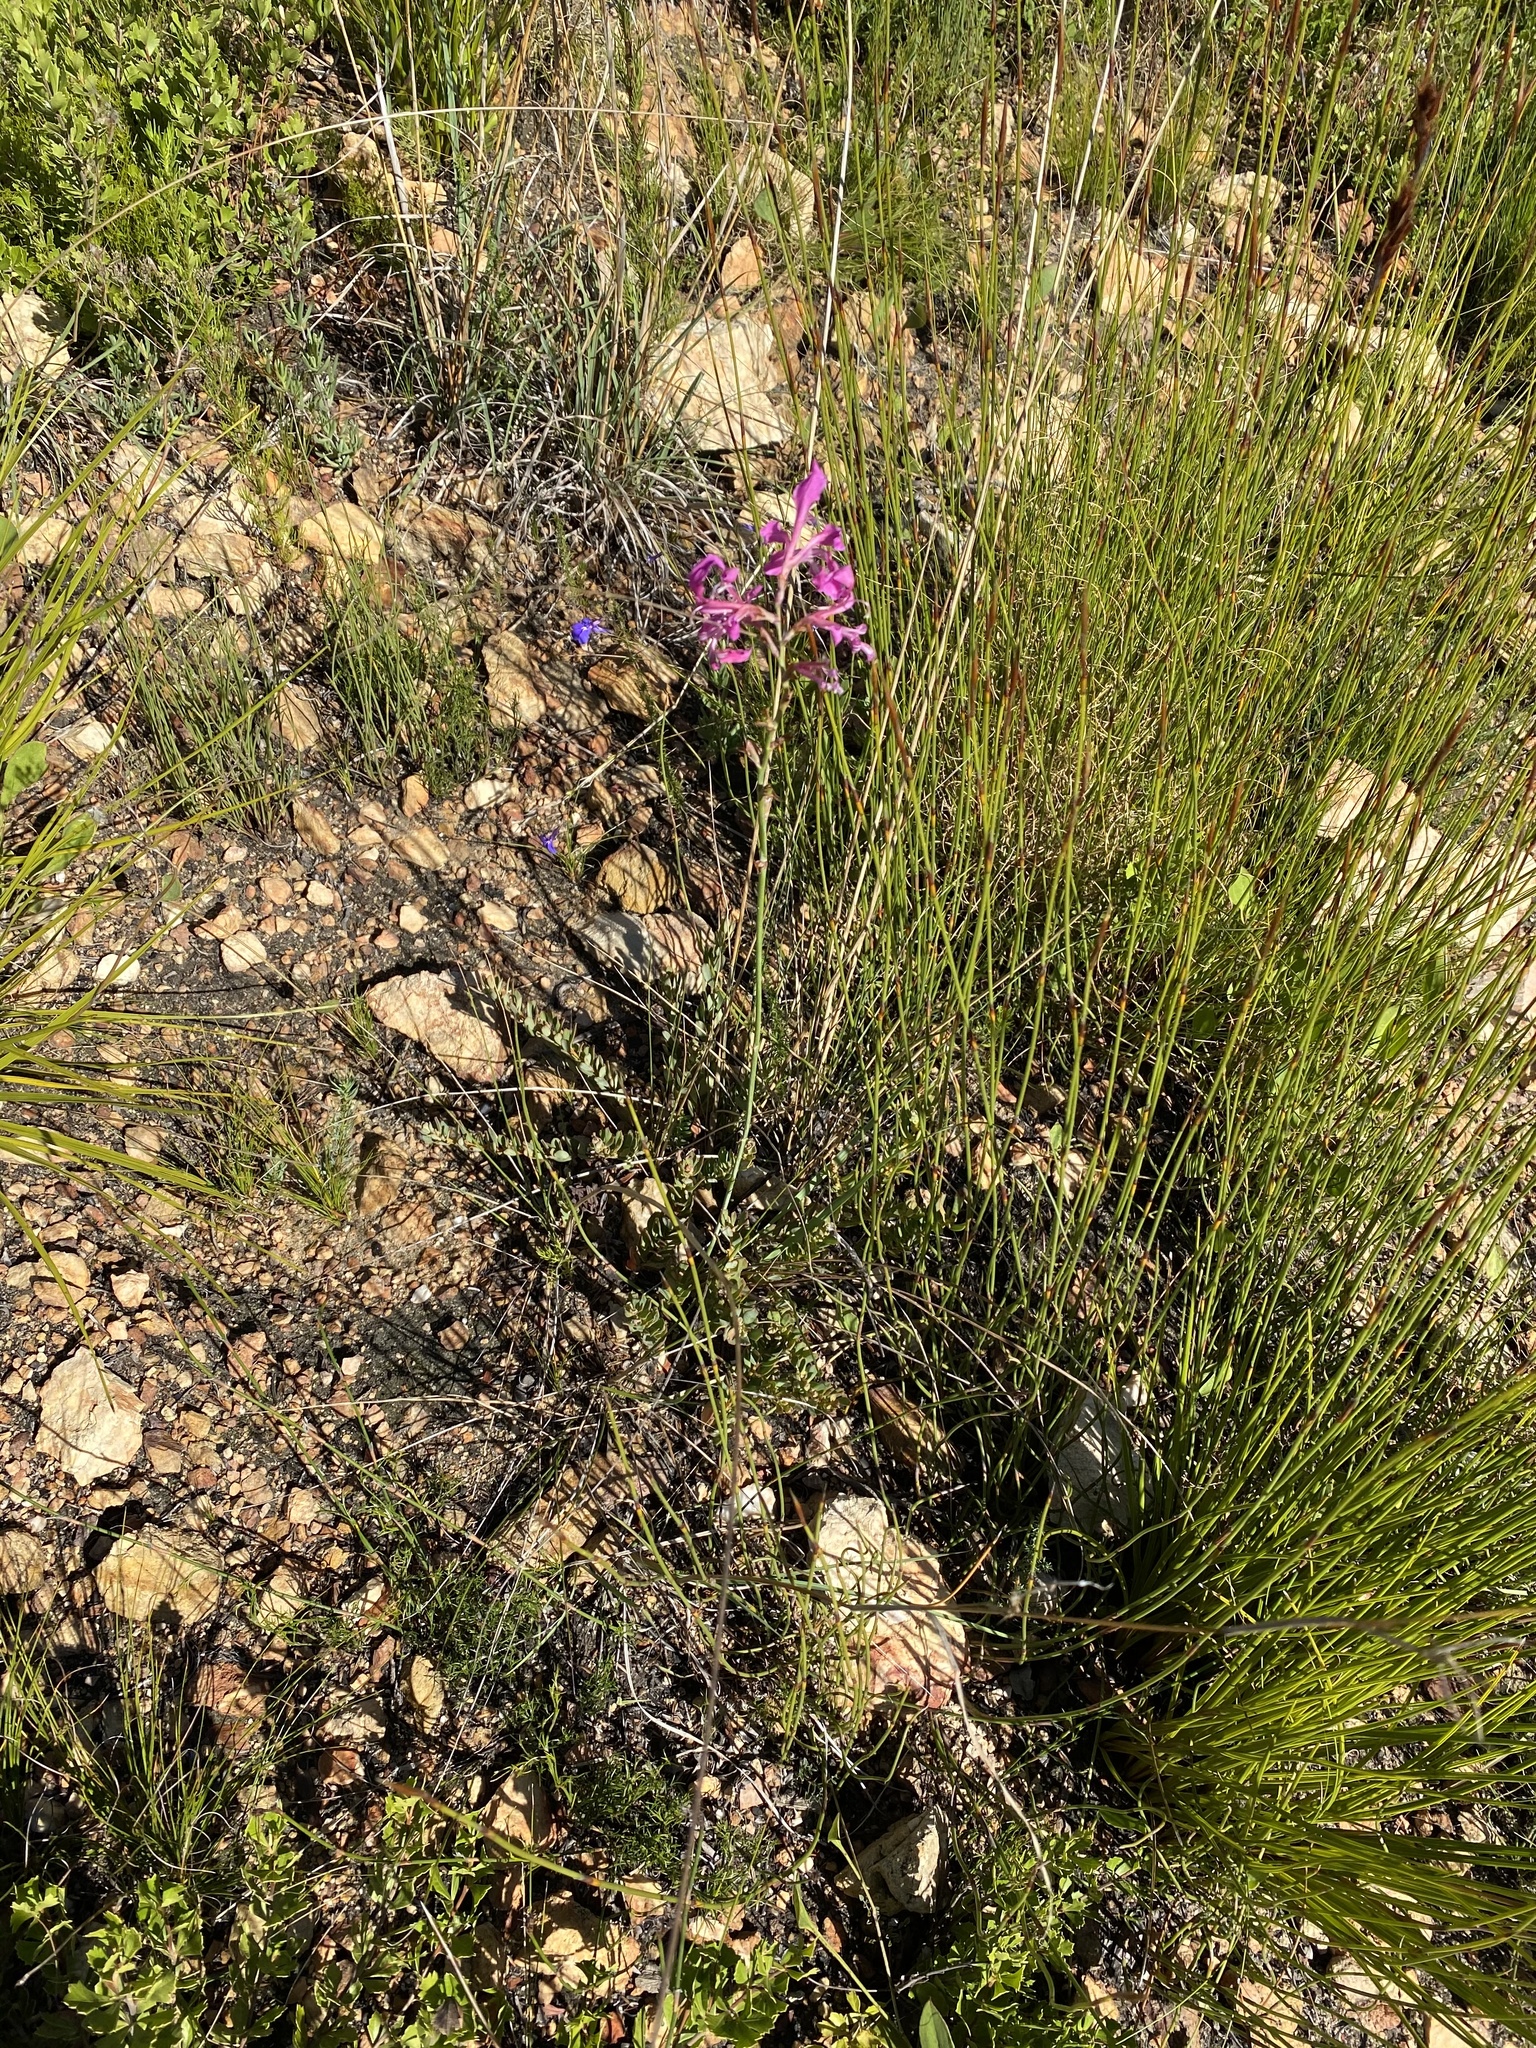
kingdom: Plantae
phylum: Tracheophyta
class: Liliopsida
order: Asparagales
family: Iridaceae
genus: Tritoniopsis
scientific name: Tritoniopsis ramosa
